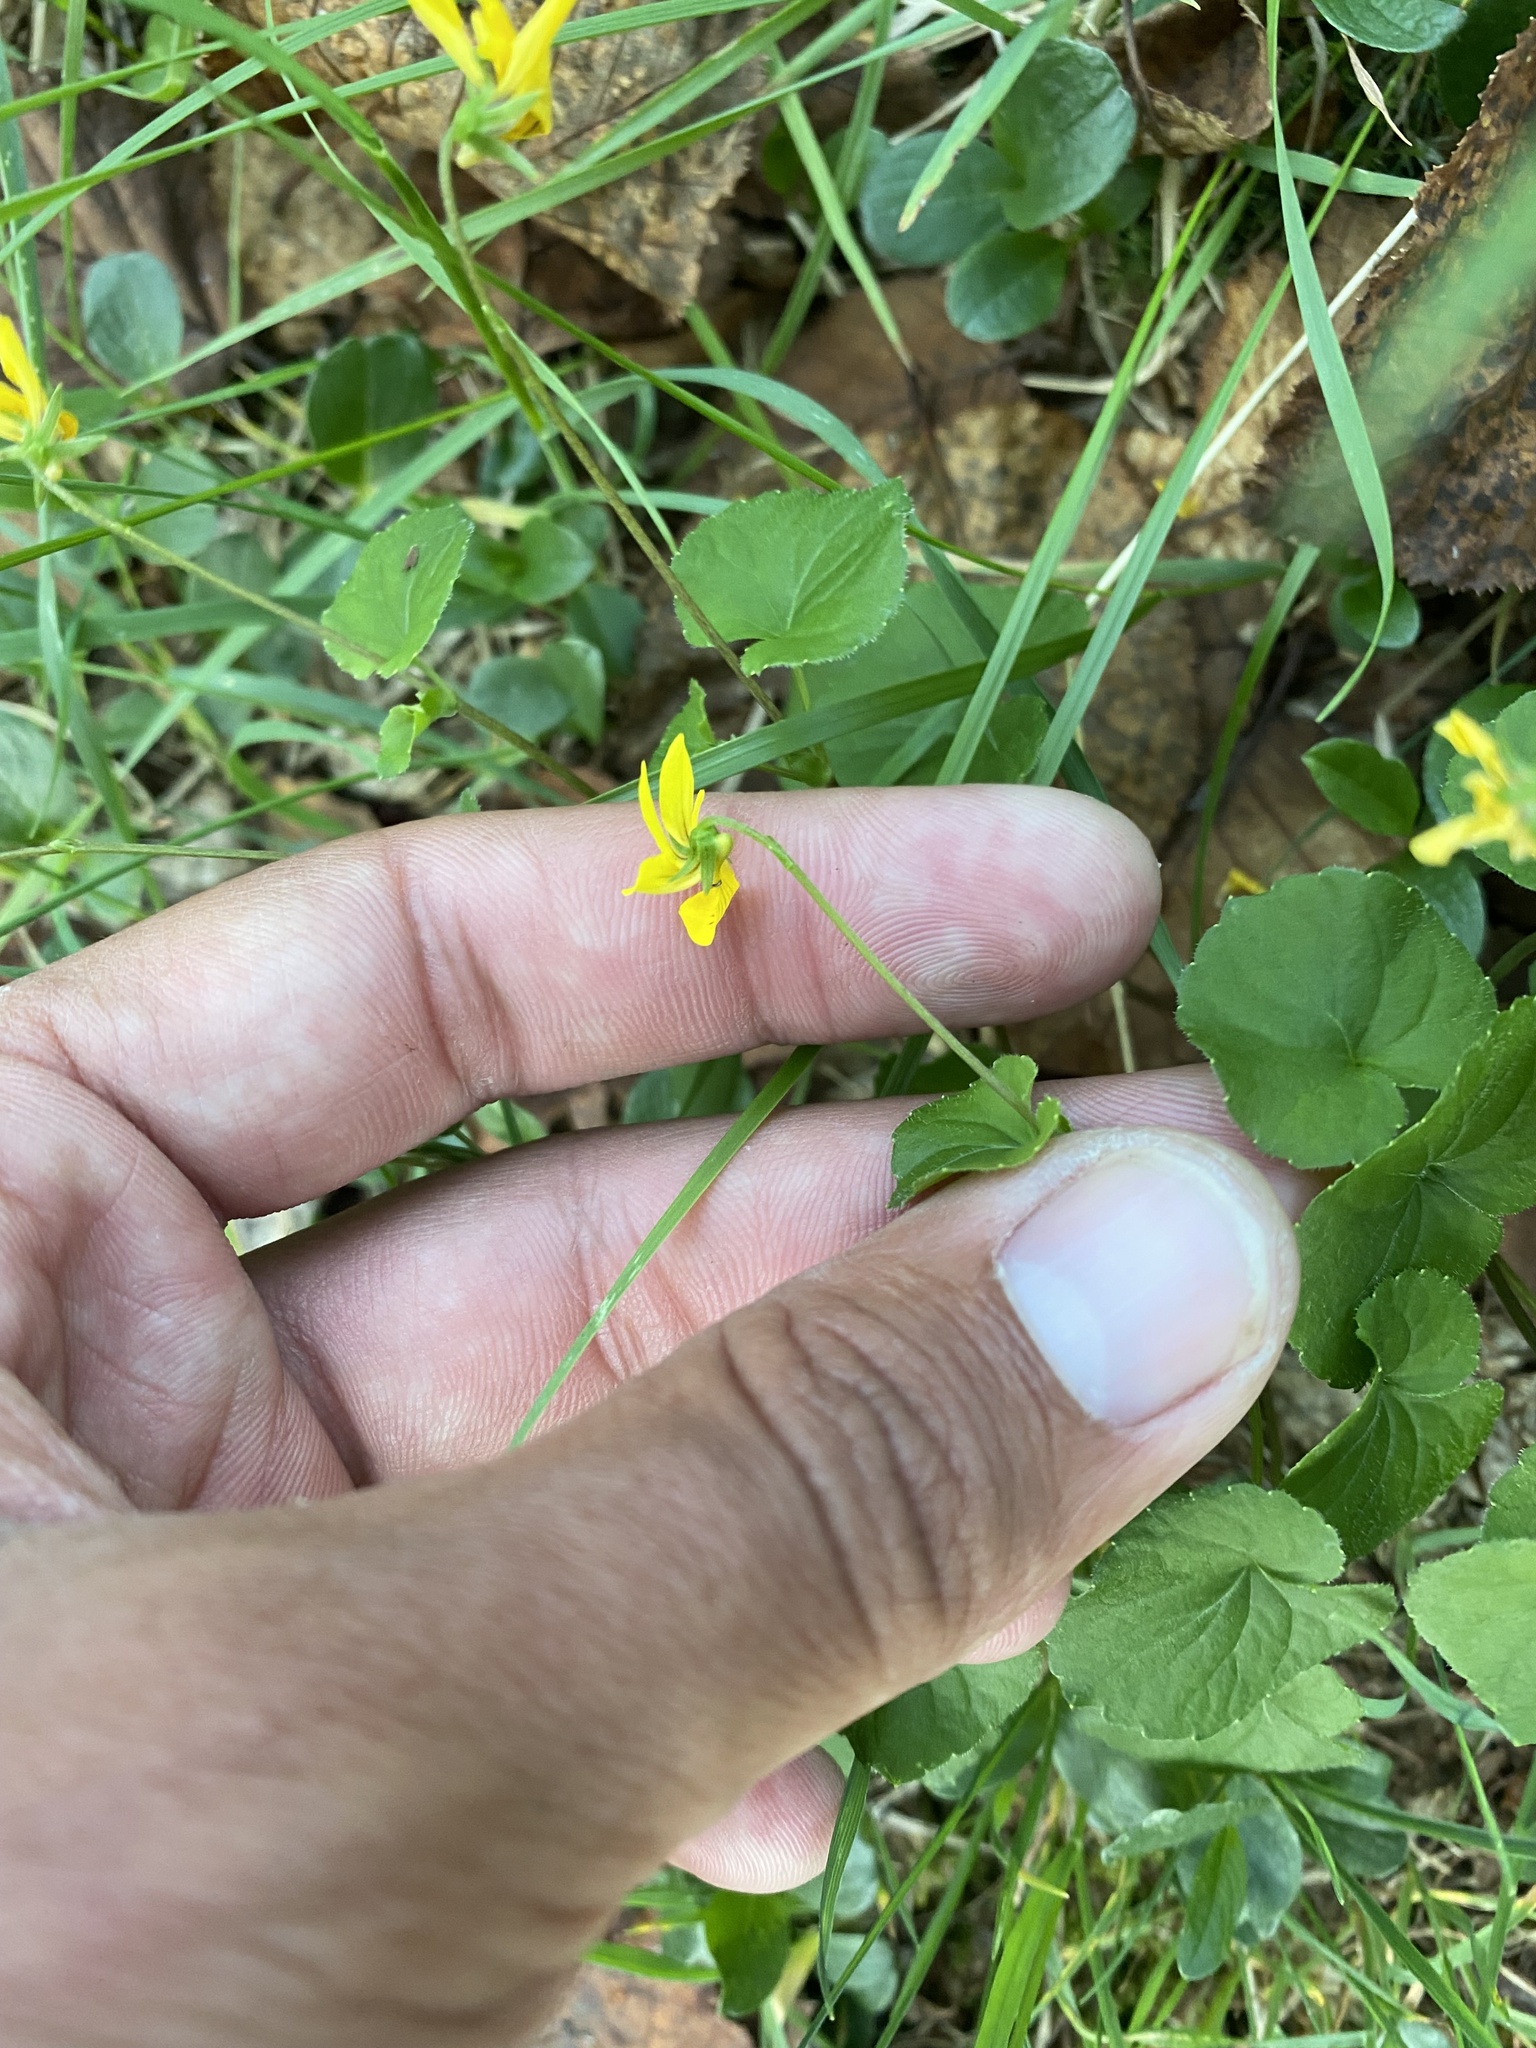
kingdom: Plantae
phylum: Tracheophyta
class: Magnoliopsida
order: Malpighiales
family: Violaceae
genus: Viola
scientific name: Viola biflora
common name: Alpine yellow violet
